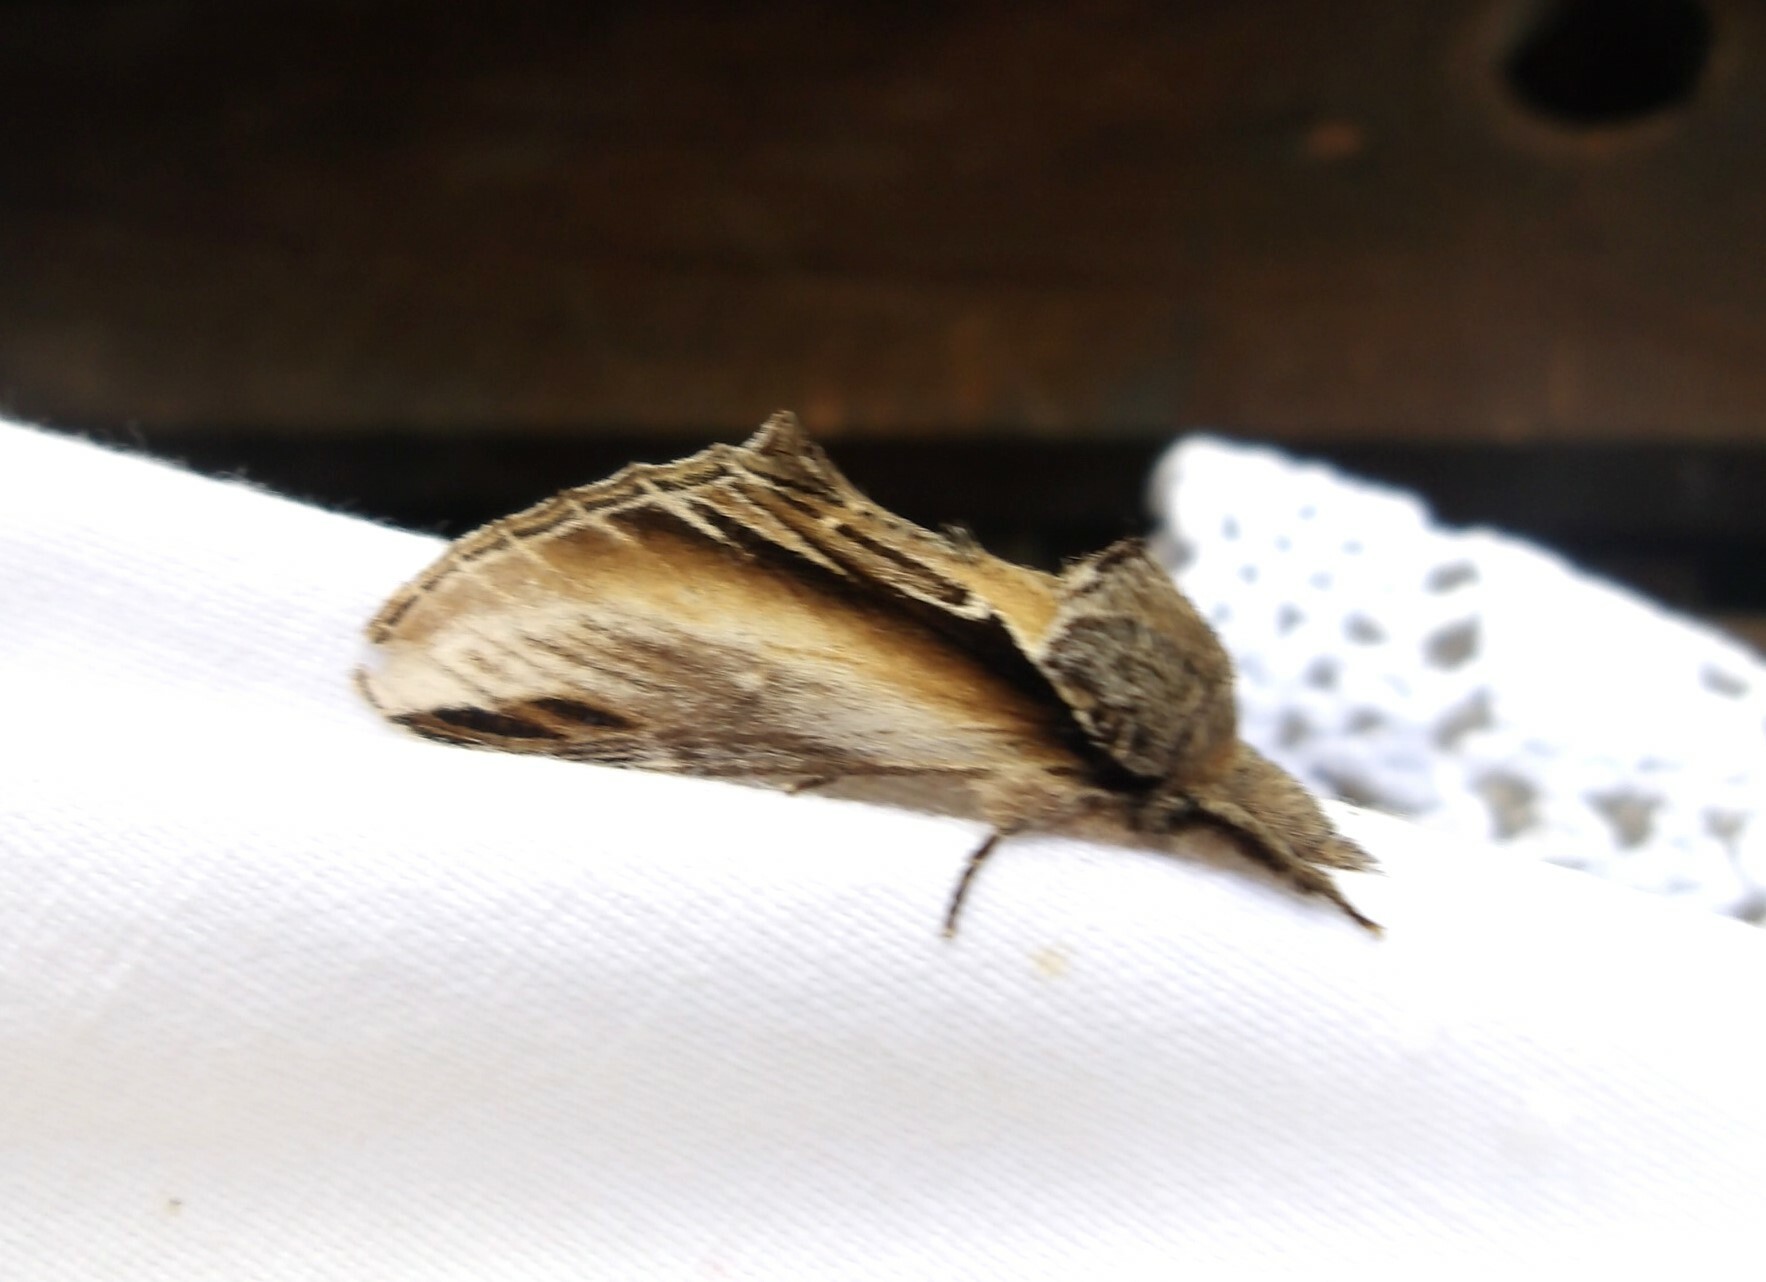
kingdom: Animalia
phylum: Arthropoda
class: Insecta
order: Lepidoptera
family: Notodontidae
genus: Pheosia
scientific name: Pheosia tremula
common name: Swallow prominent
